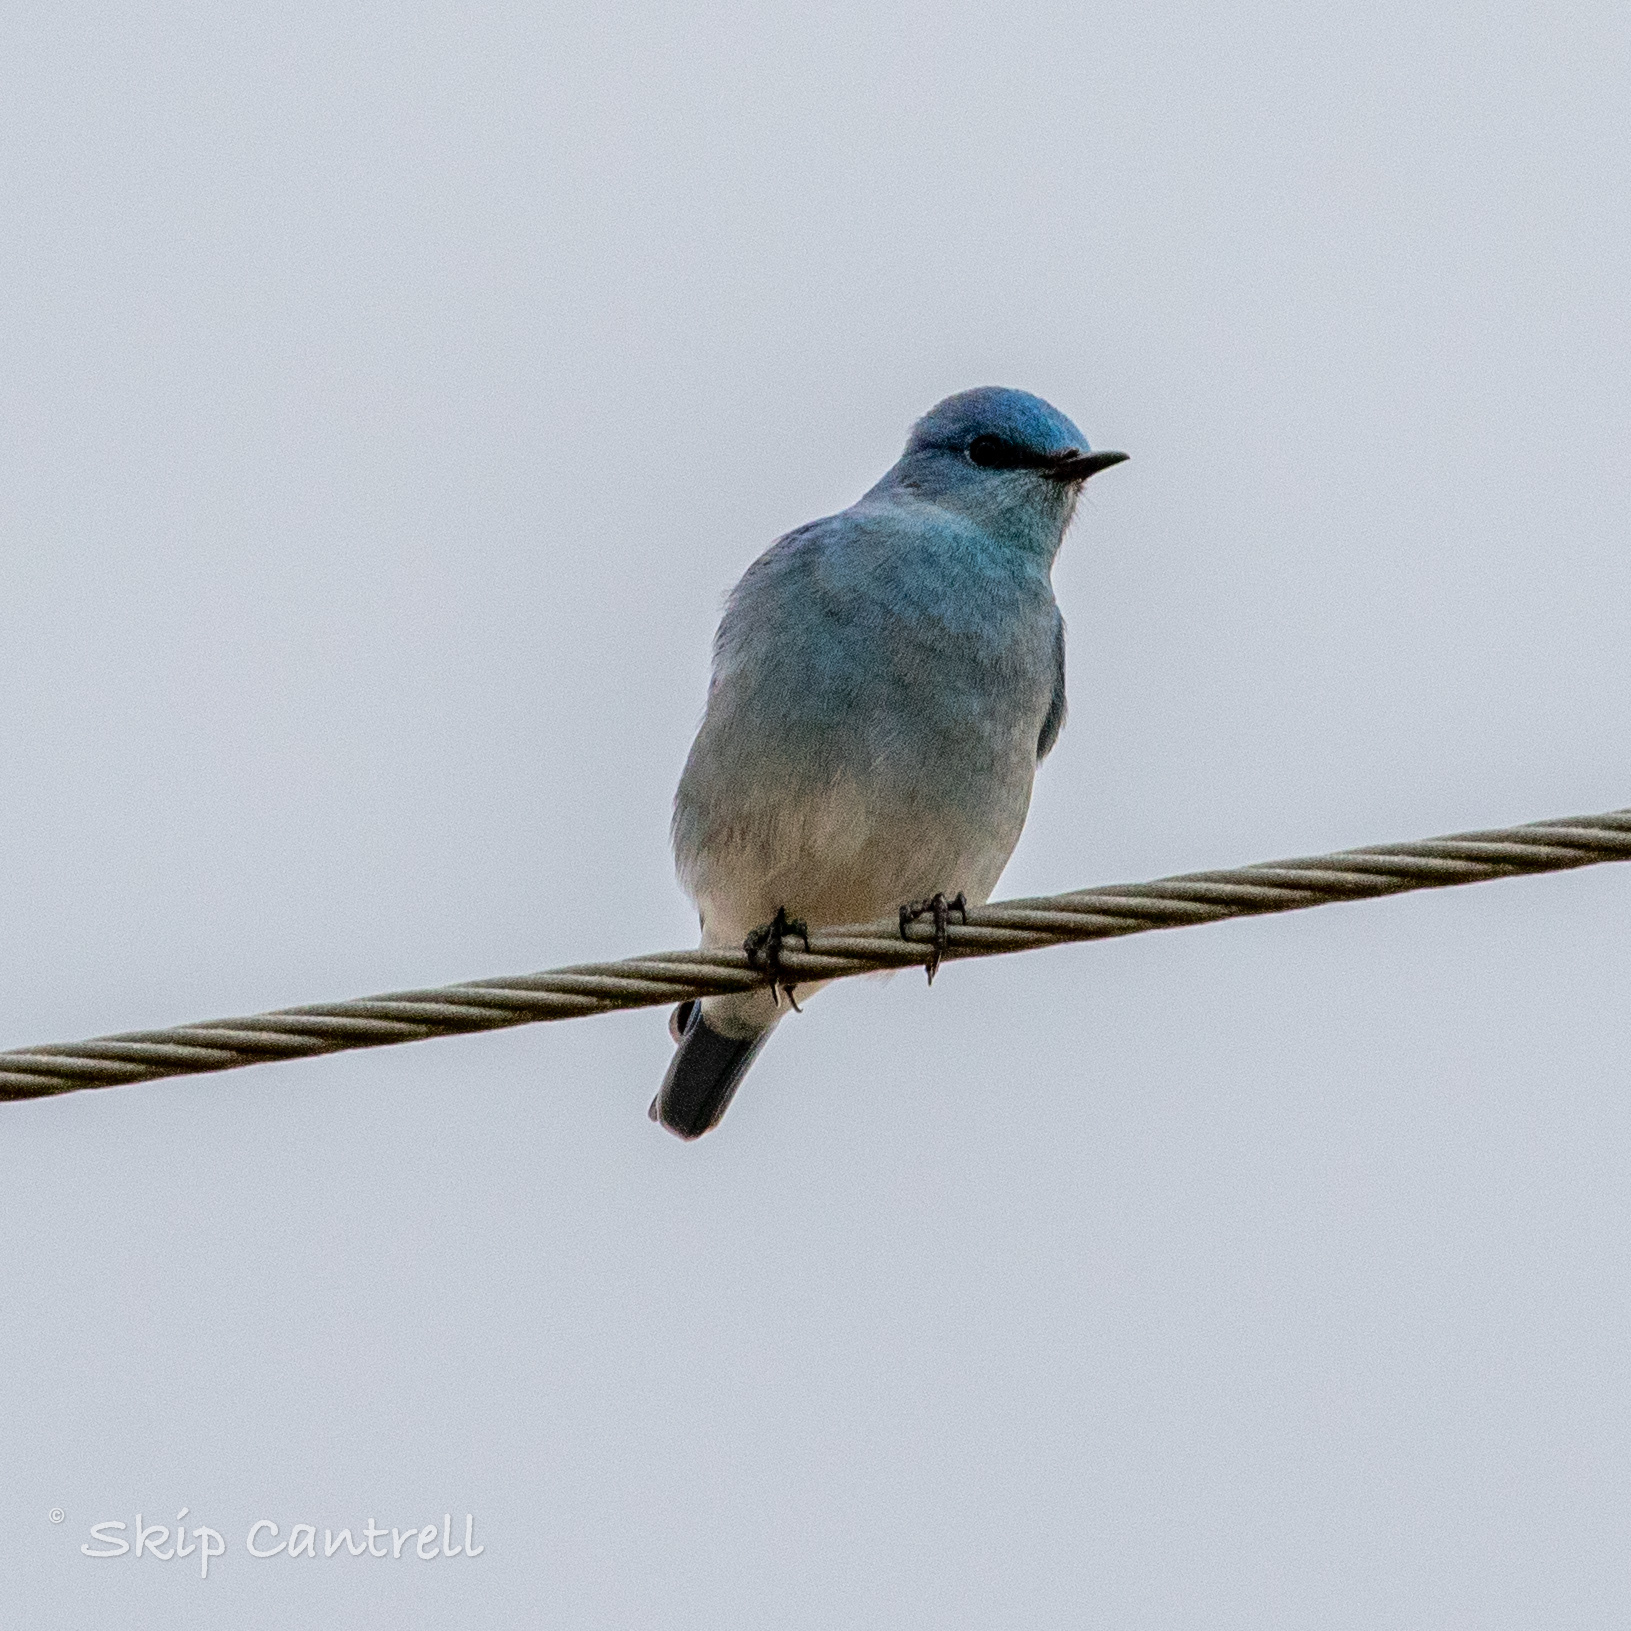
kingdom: Animalia
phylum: Chordata
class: Aves
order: Passeriformes
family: Turdidae
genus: Sialia
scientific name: Sialia currucoides
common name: Mountain bluebird
